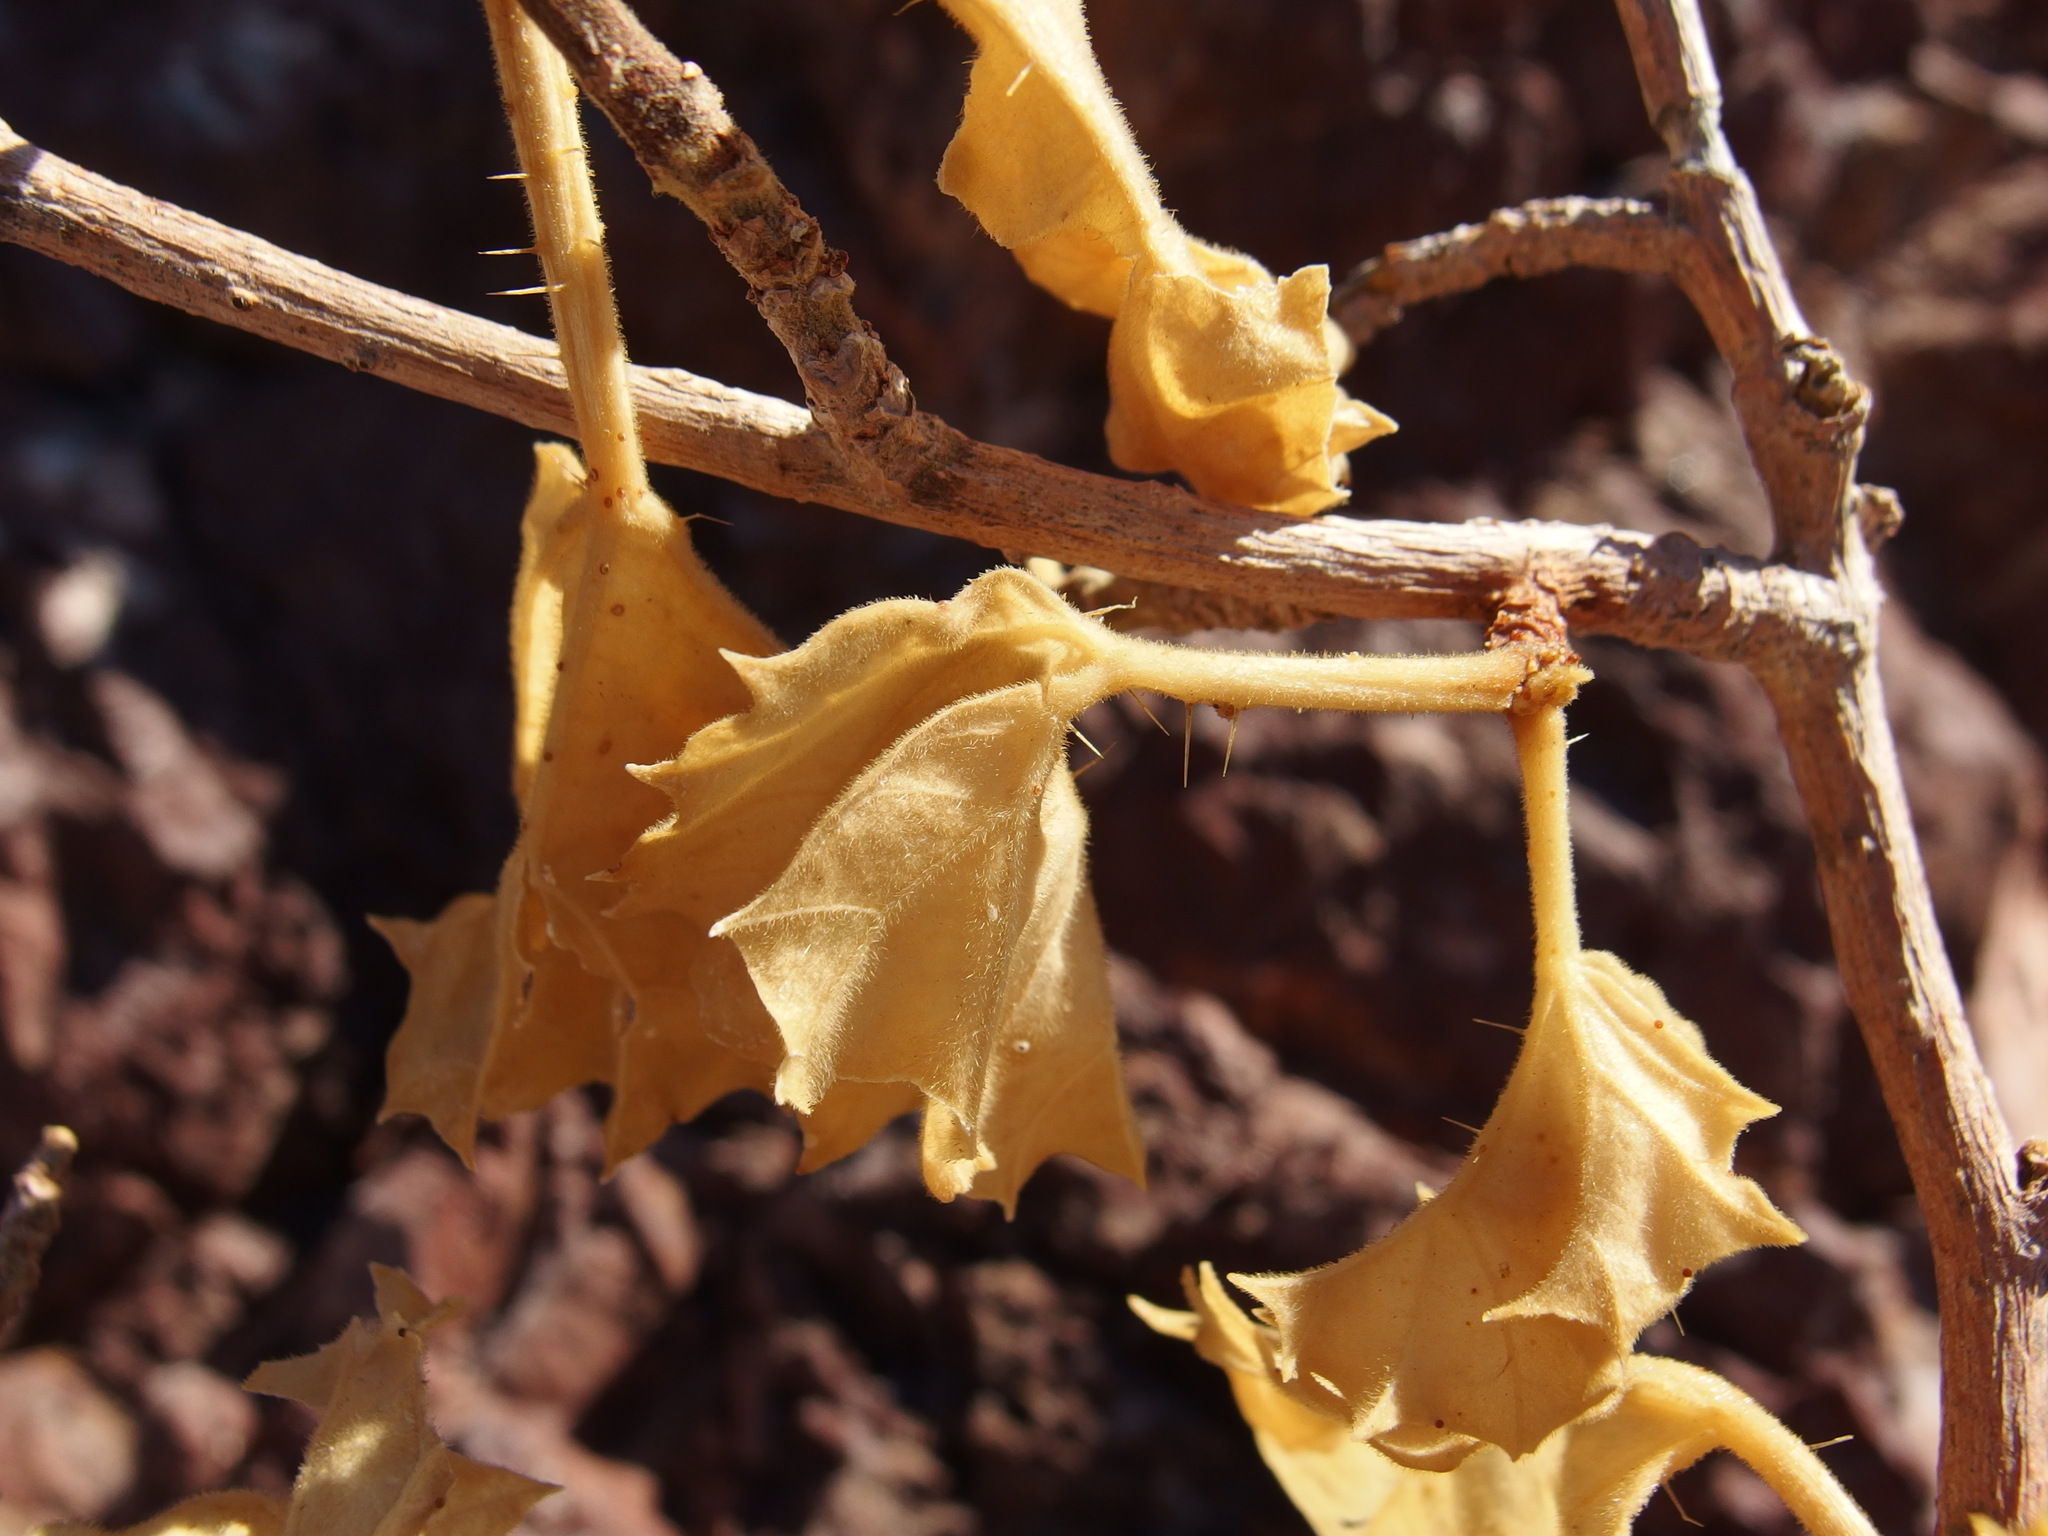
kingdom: Plantae
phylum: Tracheophyta
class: Magnoliopsida
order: Malpighiales
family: Euphorbiaceae
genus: Cnidoscolus
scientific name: Cnidoscolus palmeri
